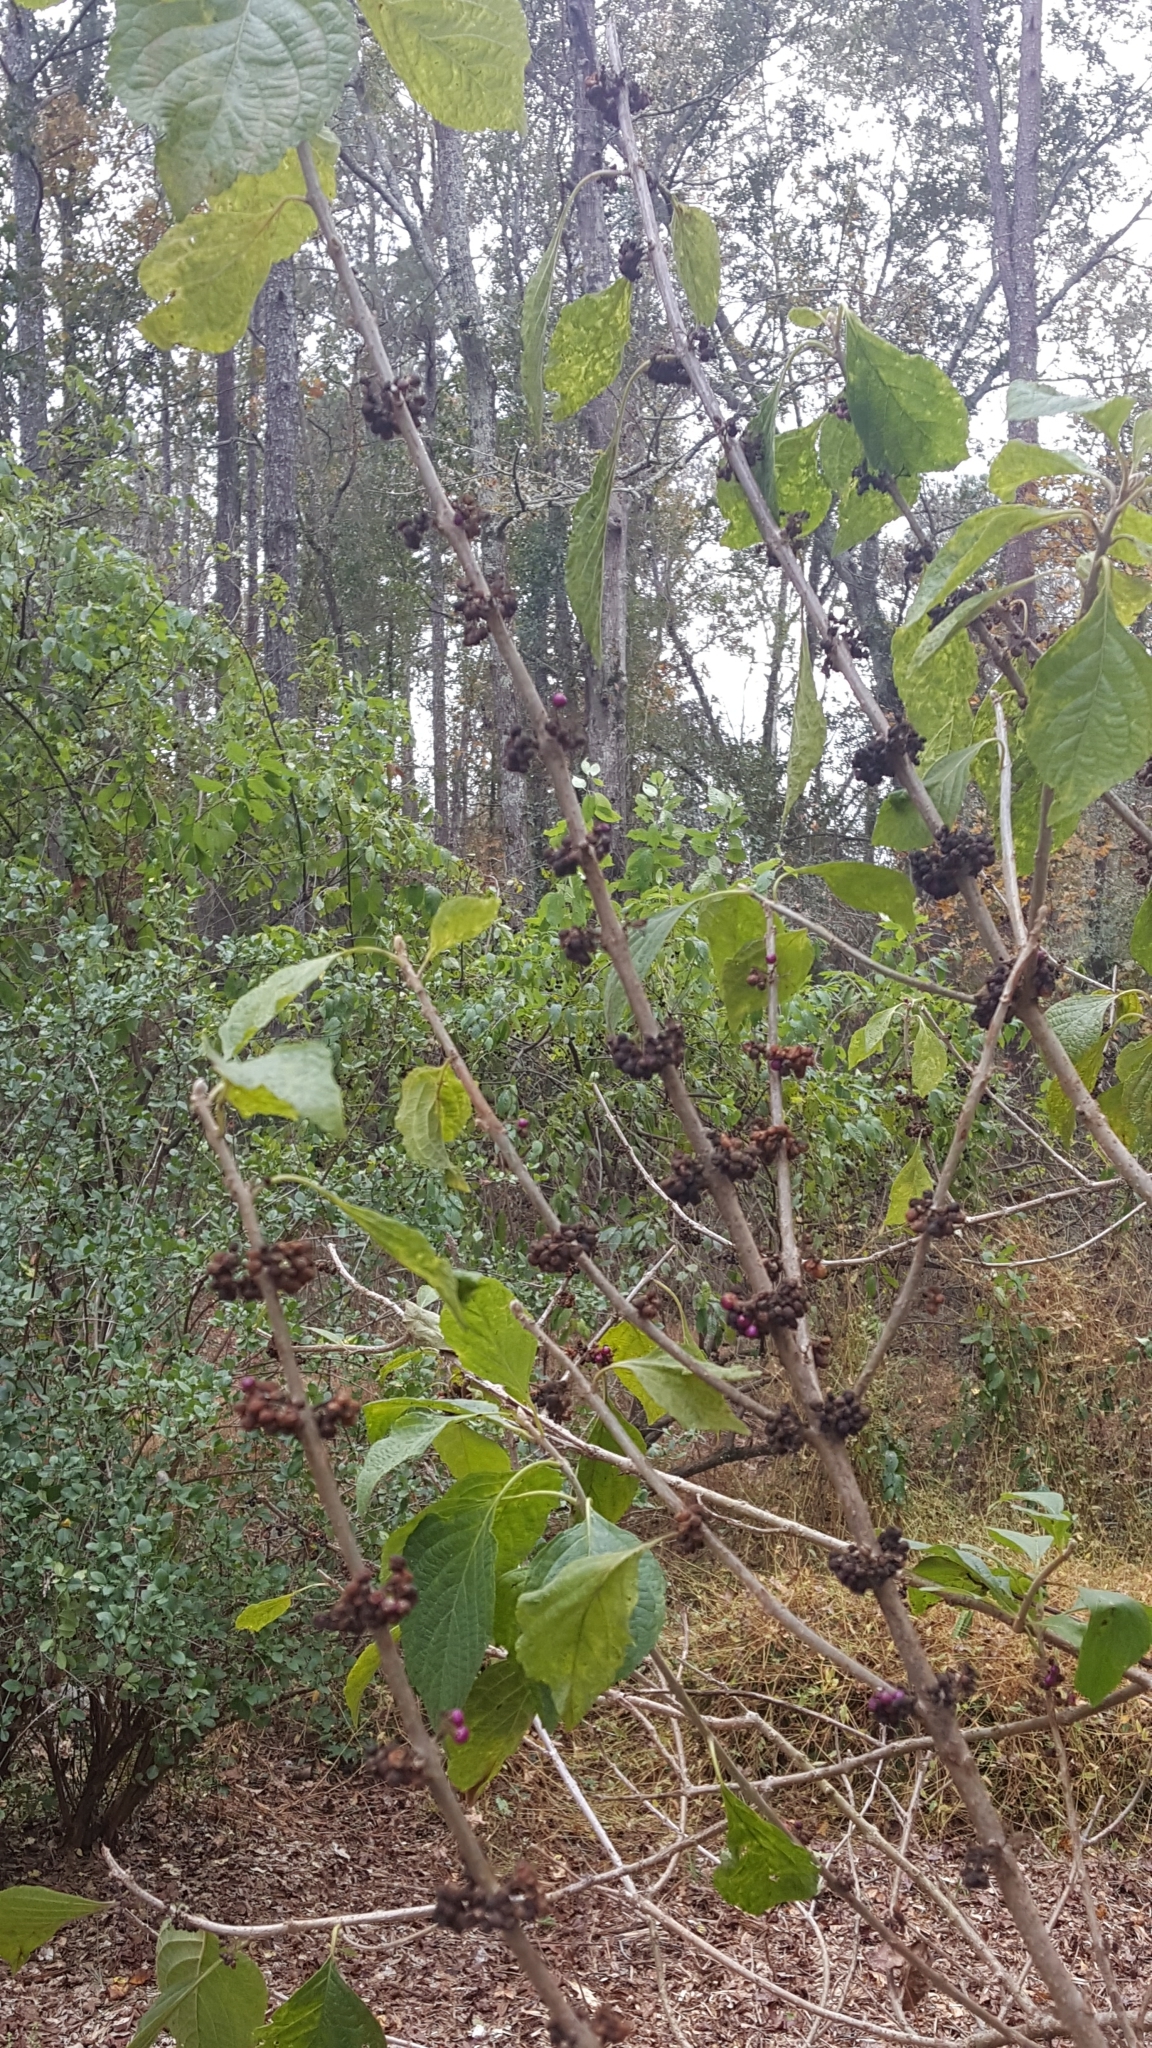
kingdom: Plantae
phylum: Tracheophyta
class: Magnoliopsida
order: Lamiales
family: Lamiaceae
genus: Callicarpa
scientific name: Callicarpa americana
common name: American beautyberry
